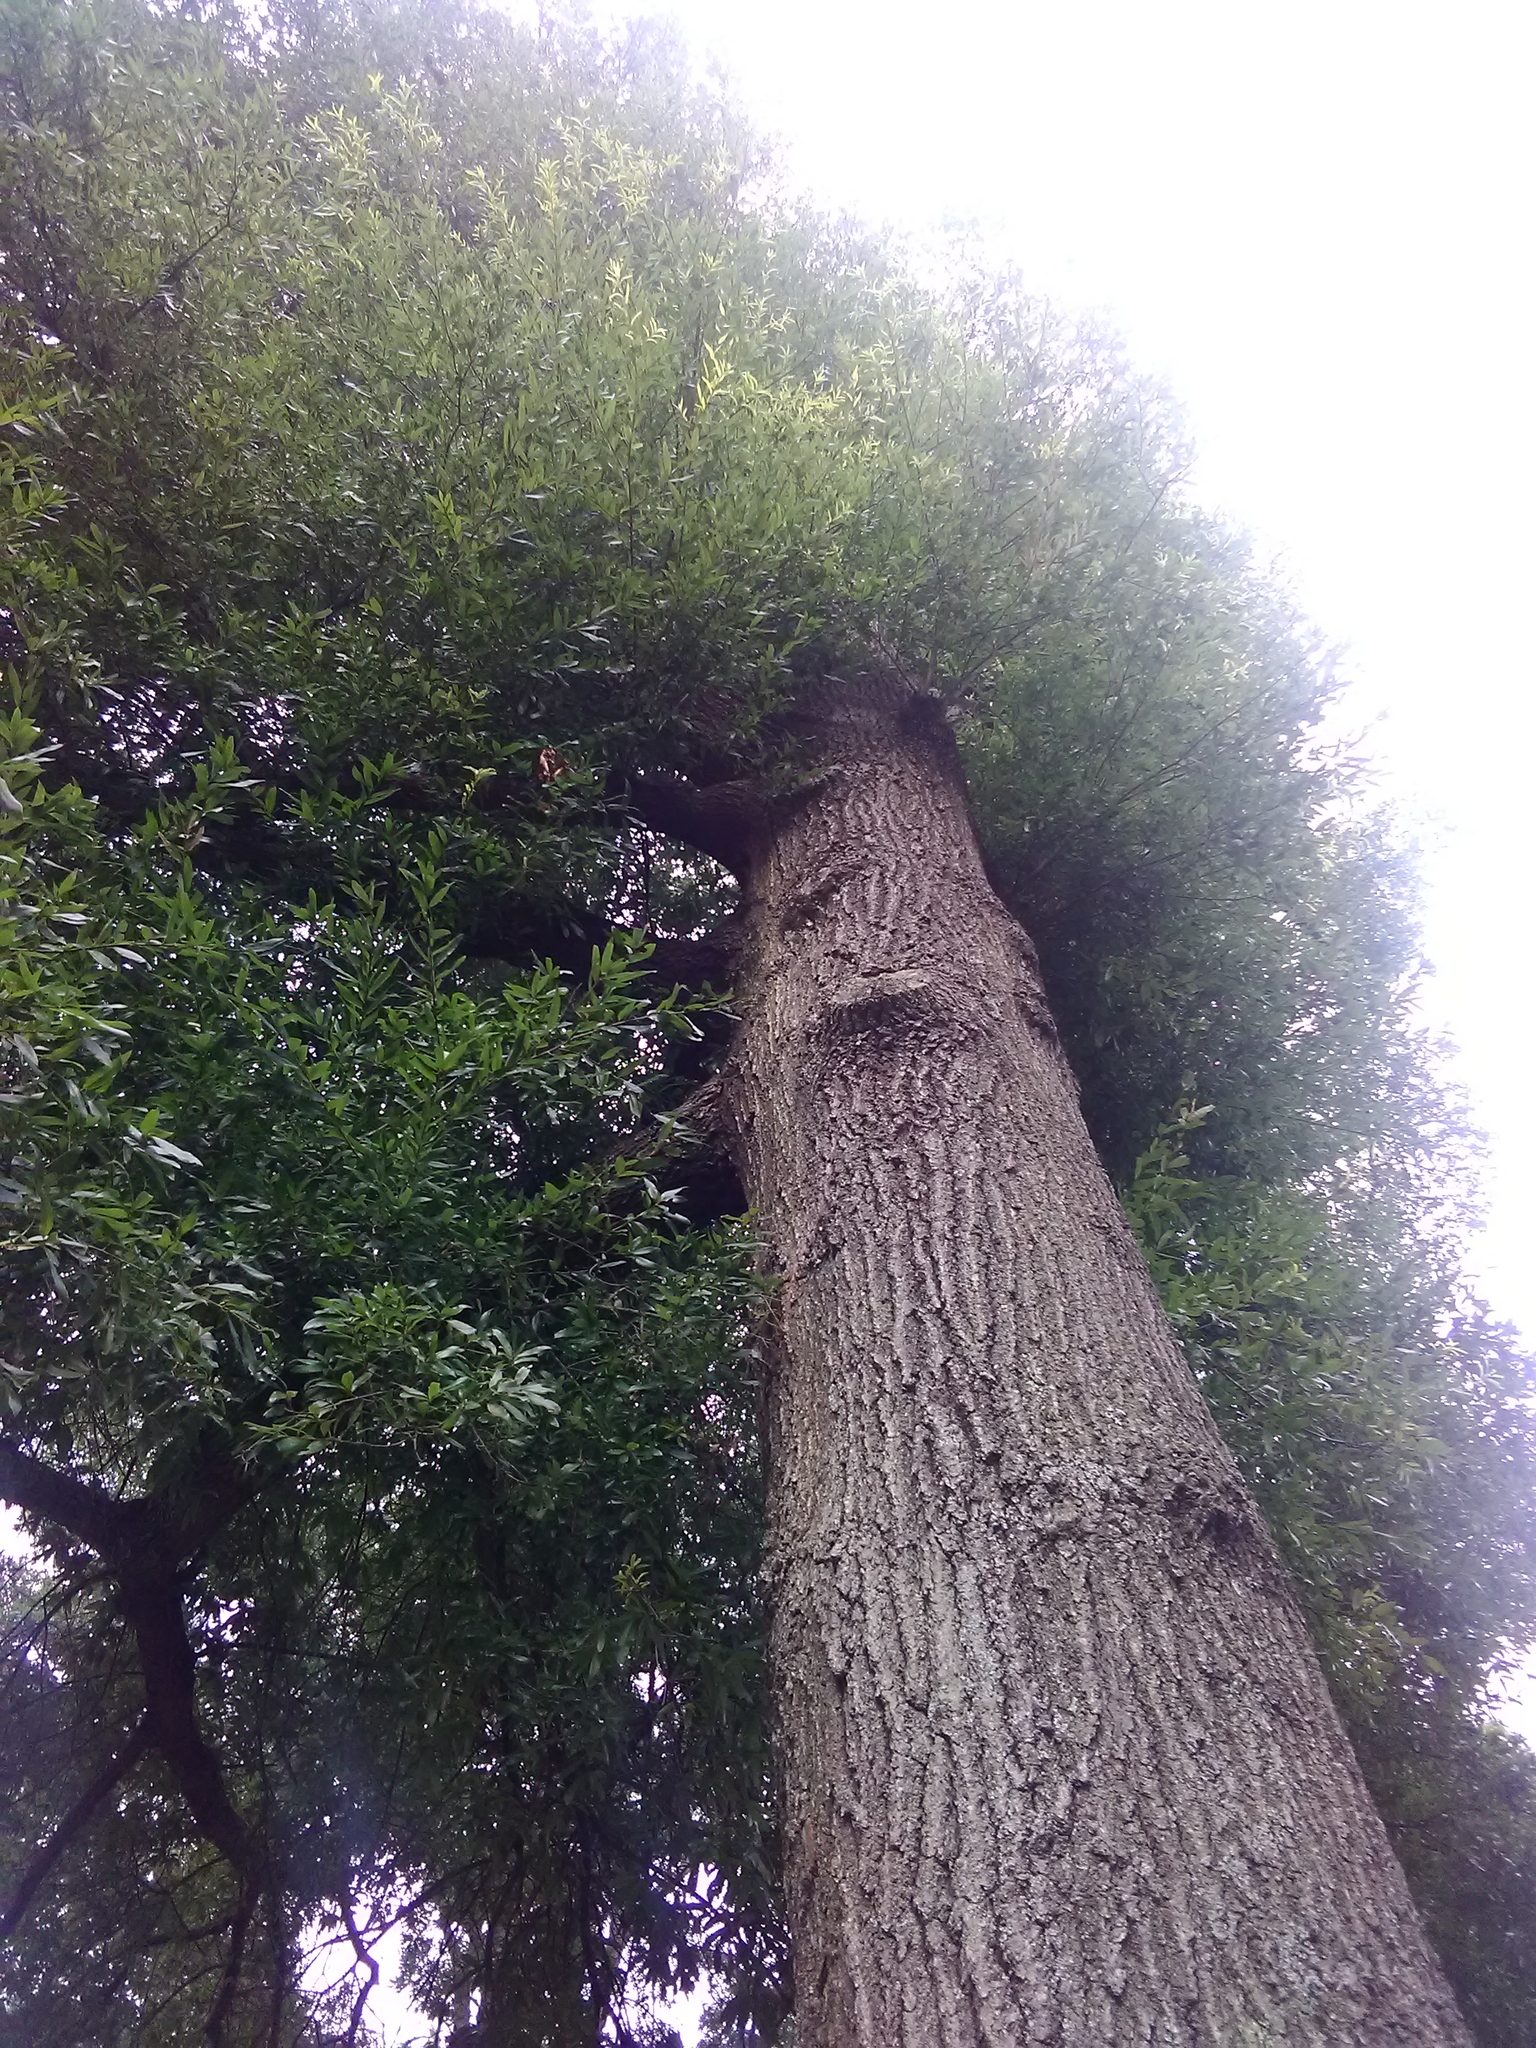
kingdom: Plantae
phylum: Tracheophyta
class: Magnoliopsida
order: Fagales
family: Fagaceae
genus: Quercus
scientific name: Quercus phellos
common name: Willow oak
